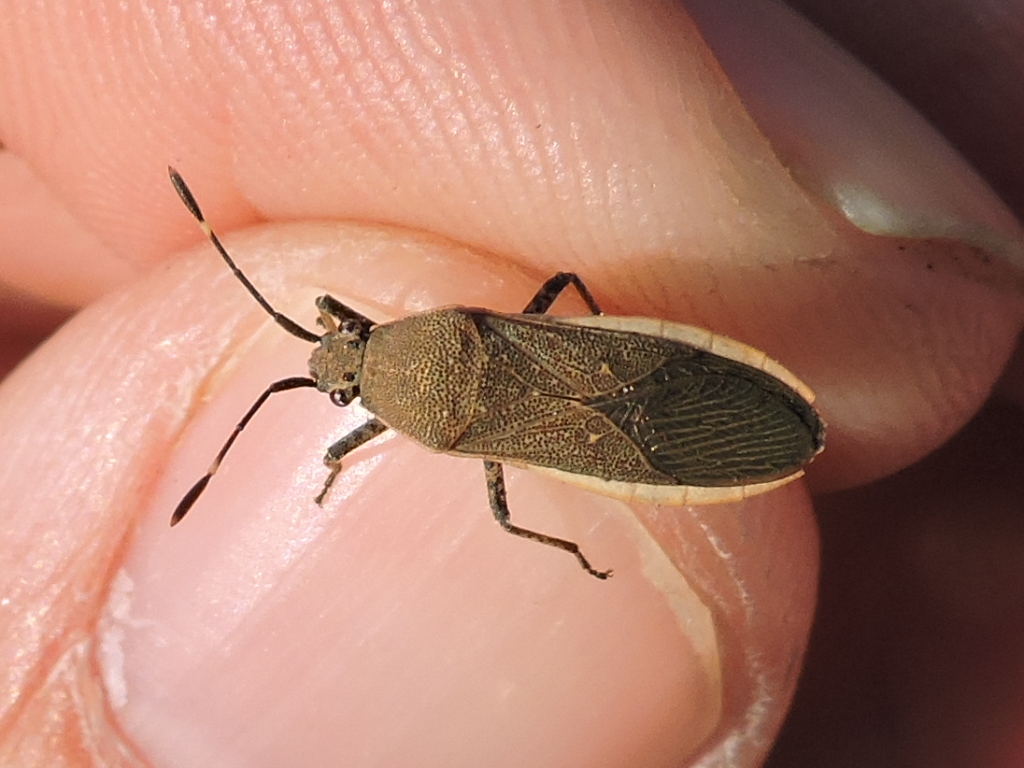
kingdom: Animalia
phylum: Arthropoda
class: Insecta
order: Hemiptera
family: Coreidae
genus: Catorhintha
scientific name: Catorhintha texana
